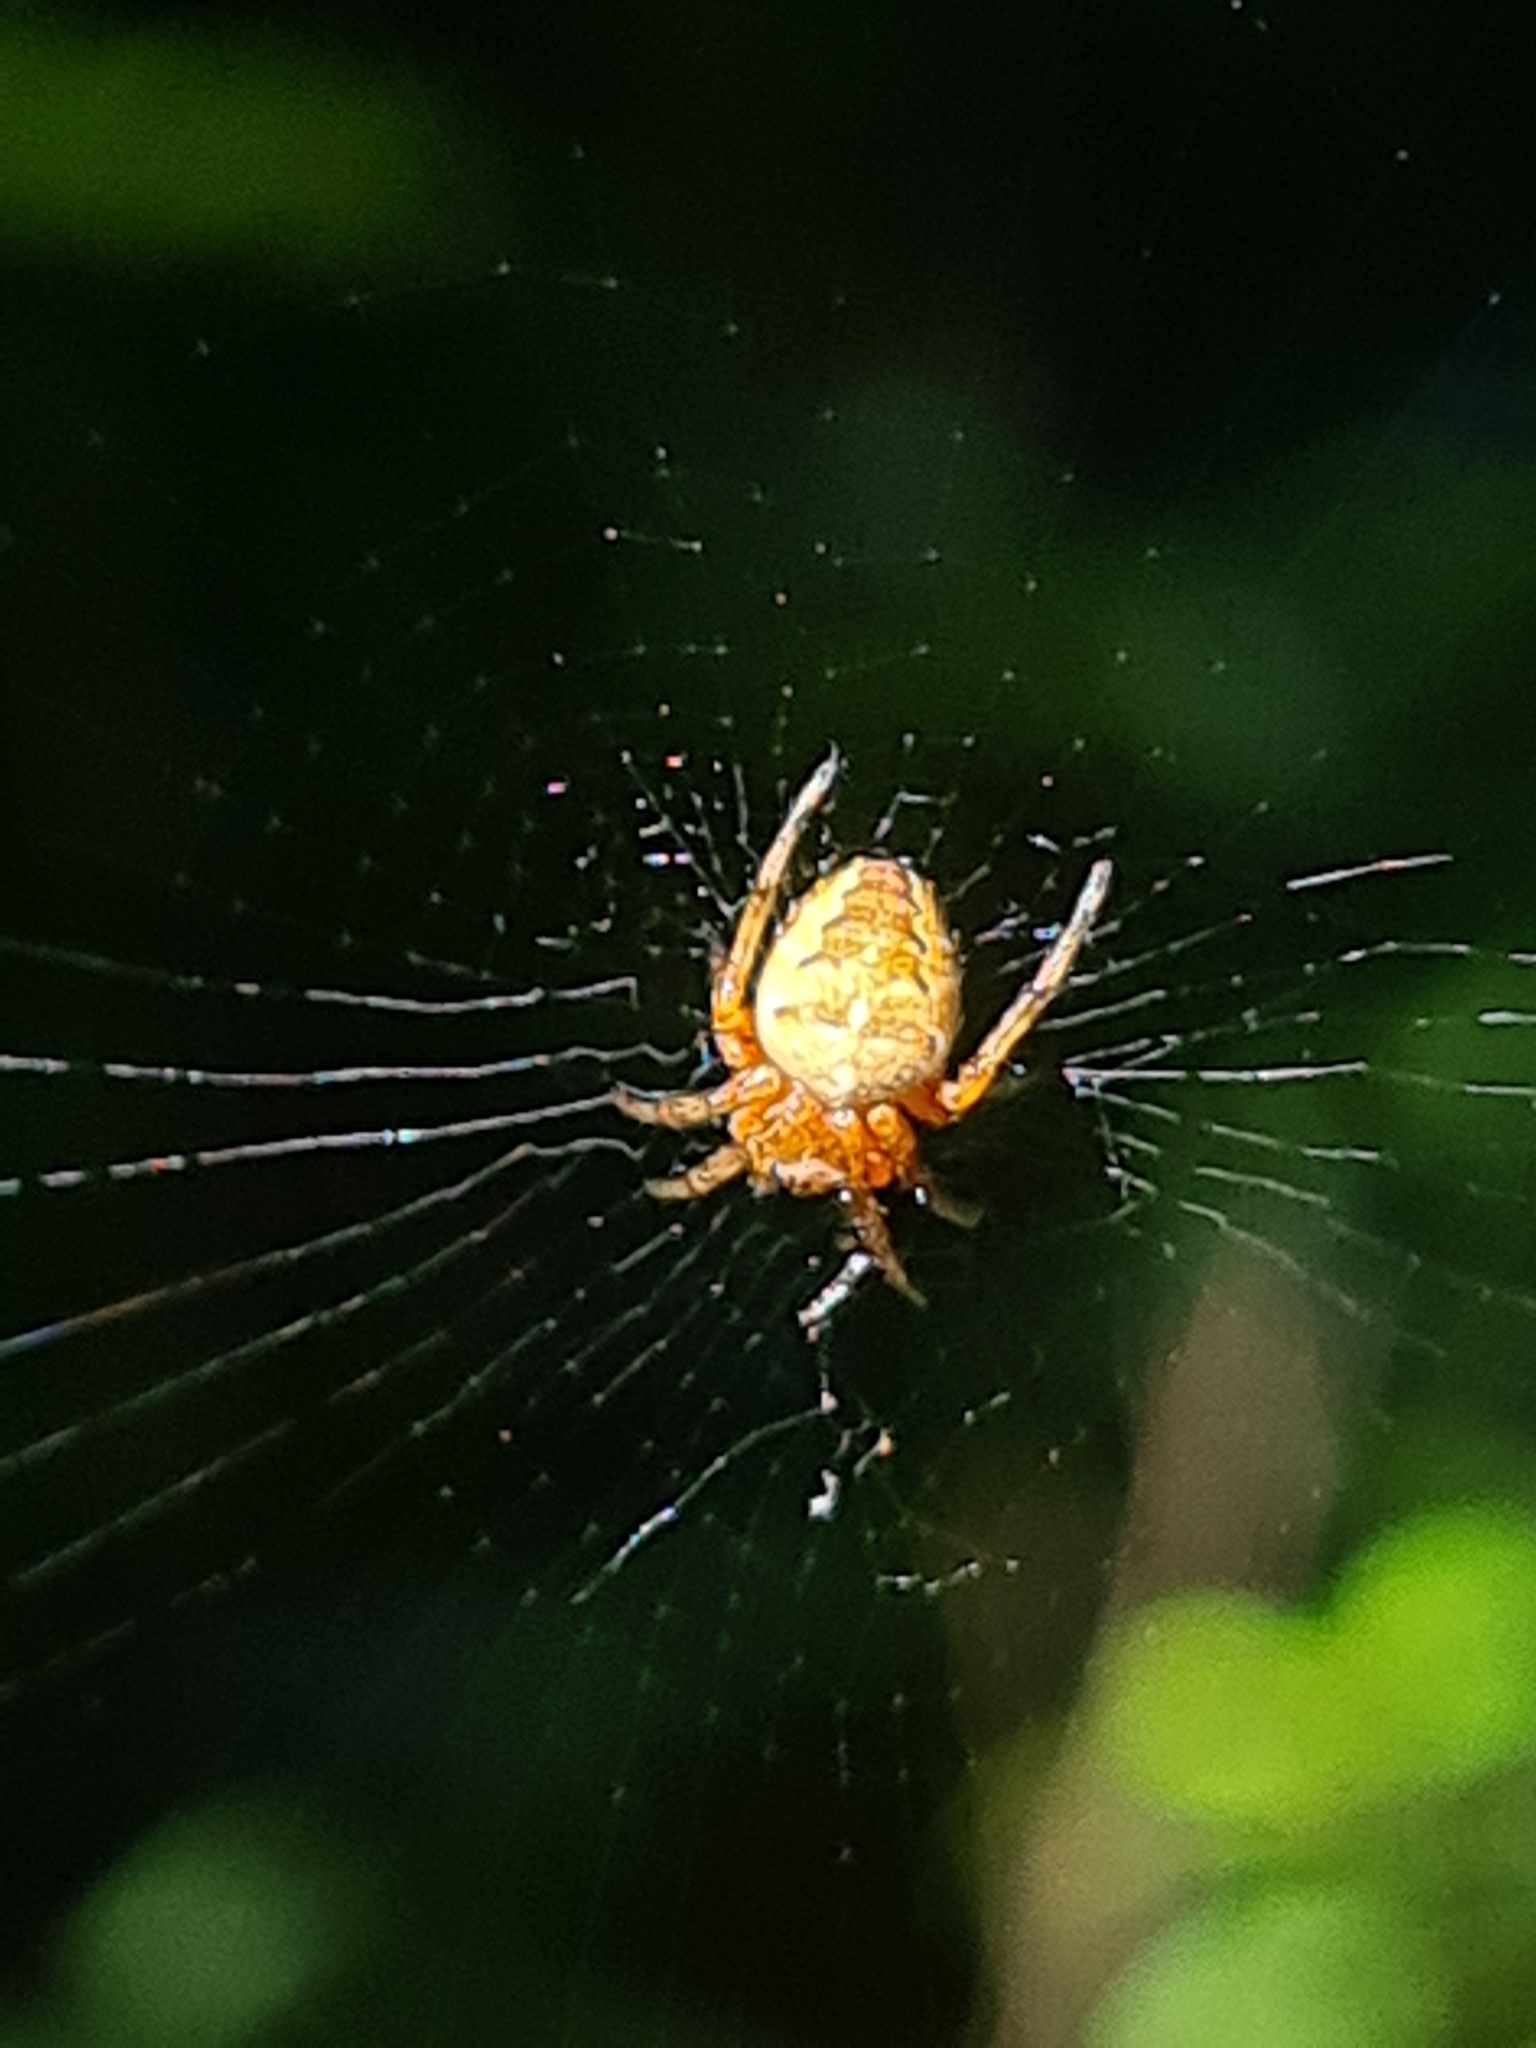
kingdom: Animalia
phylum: Arthropoda
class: Arachnida
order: Araneae
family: Araneidae
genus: Araneus
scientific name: Araneus diadematus
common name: Cross orbweaver
